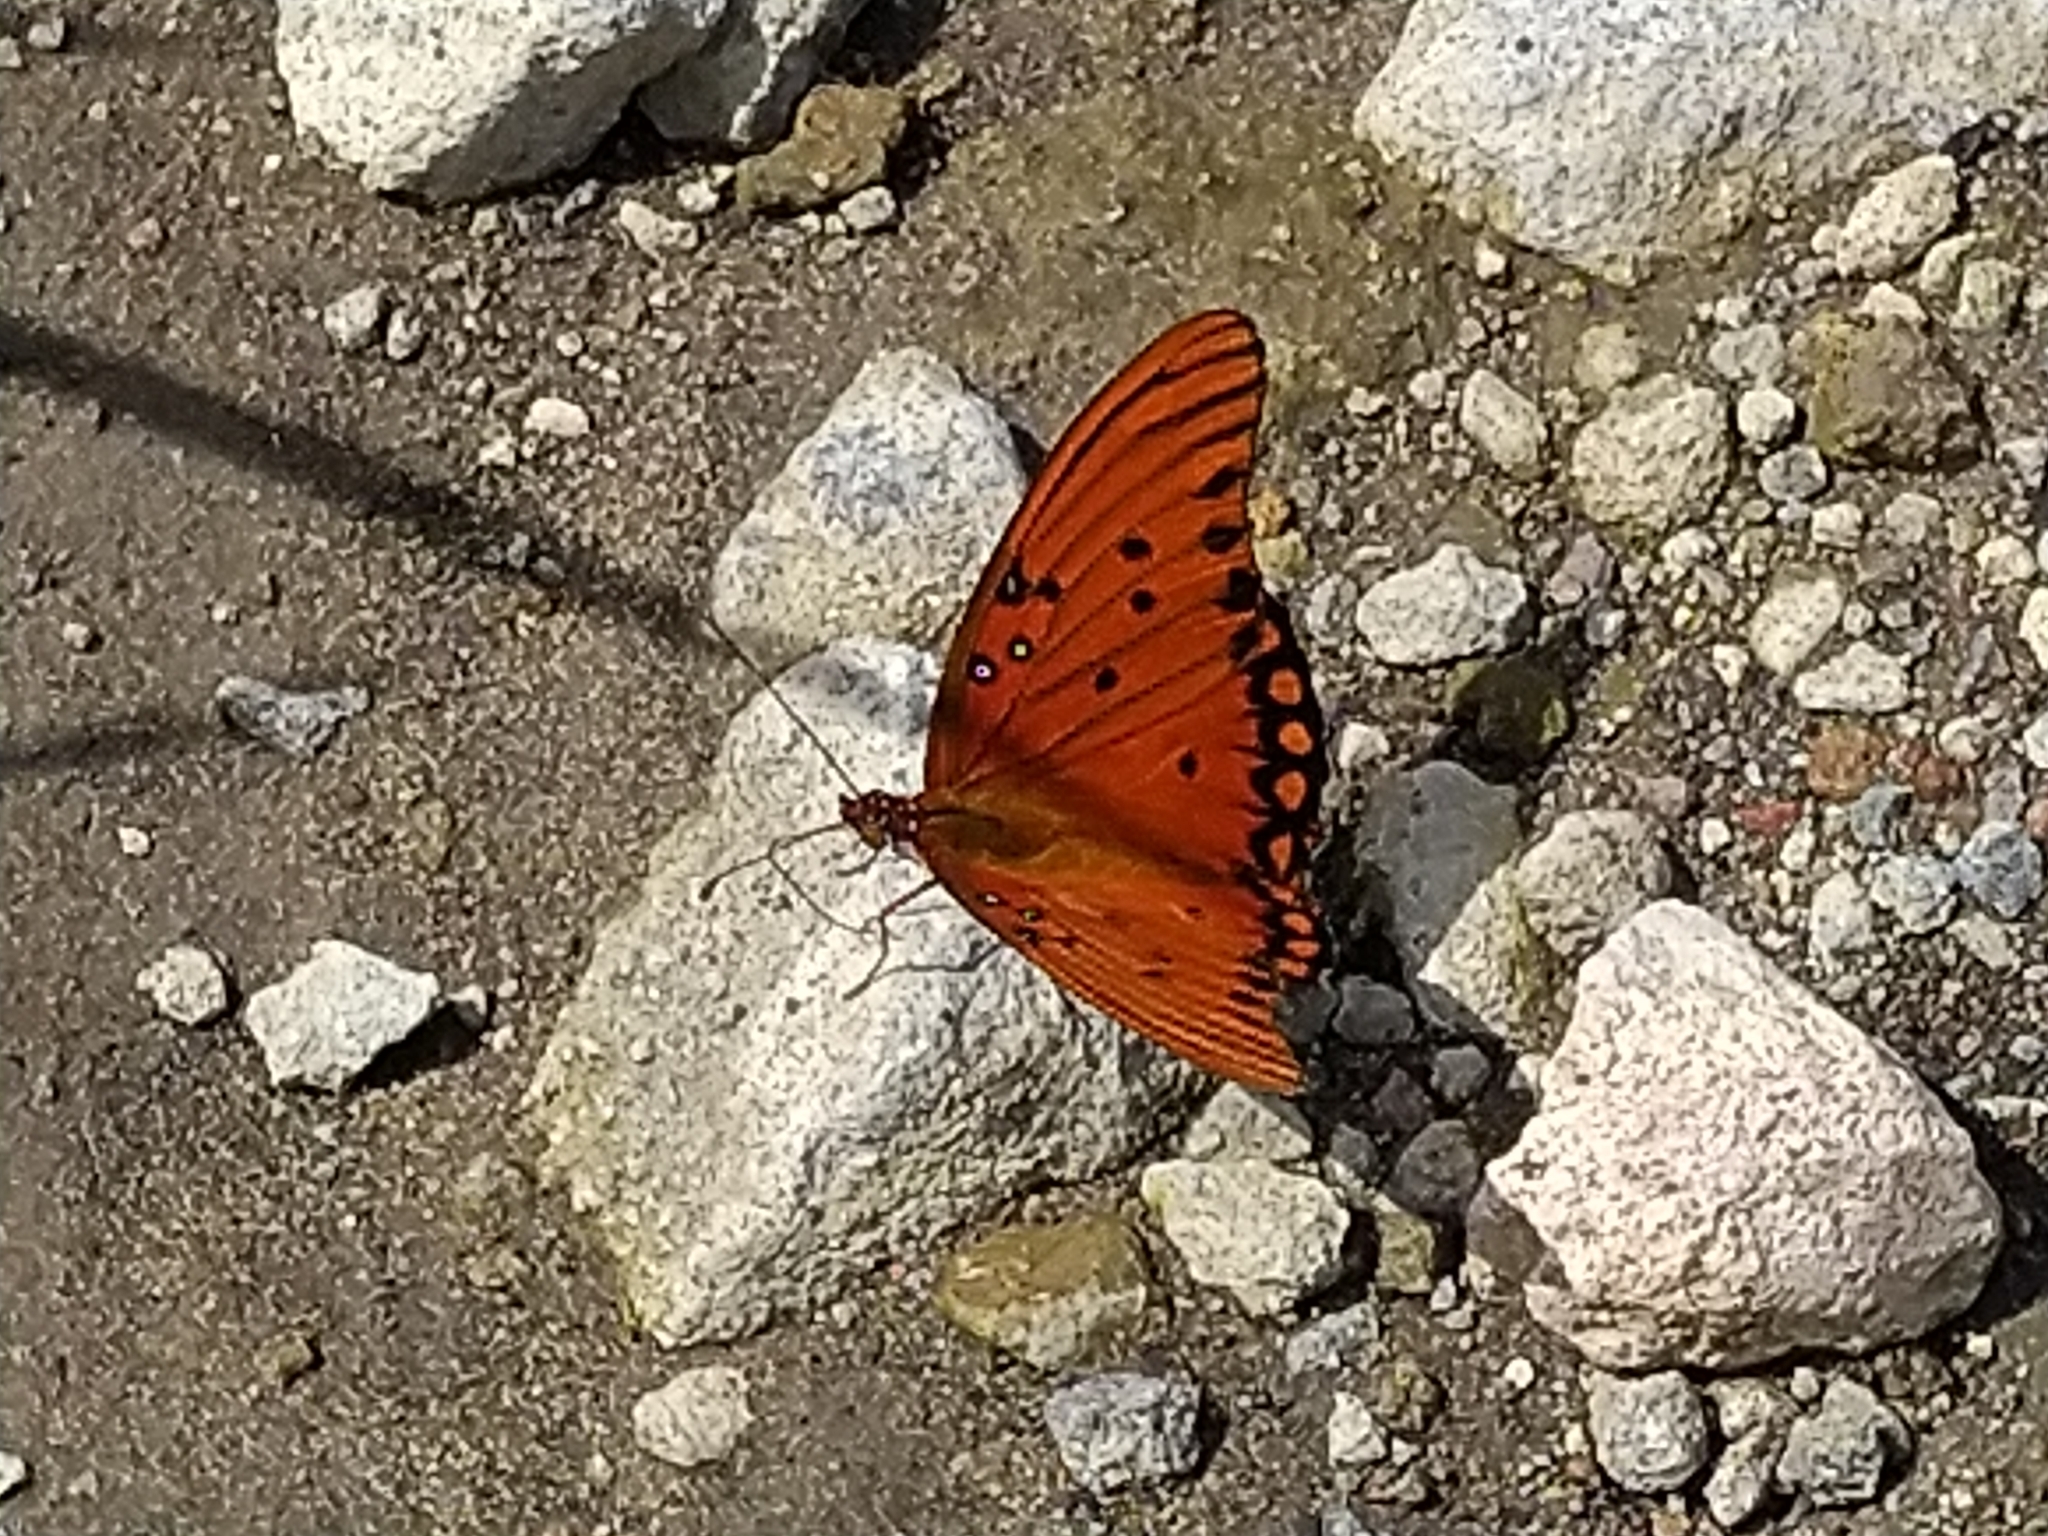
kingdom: Animalia
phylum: Arthropoda
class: Insecta
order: Lepidoptera
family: Nymphalidae
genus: Dione
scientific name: Dione vanillae
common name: Gulf fritillary
